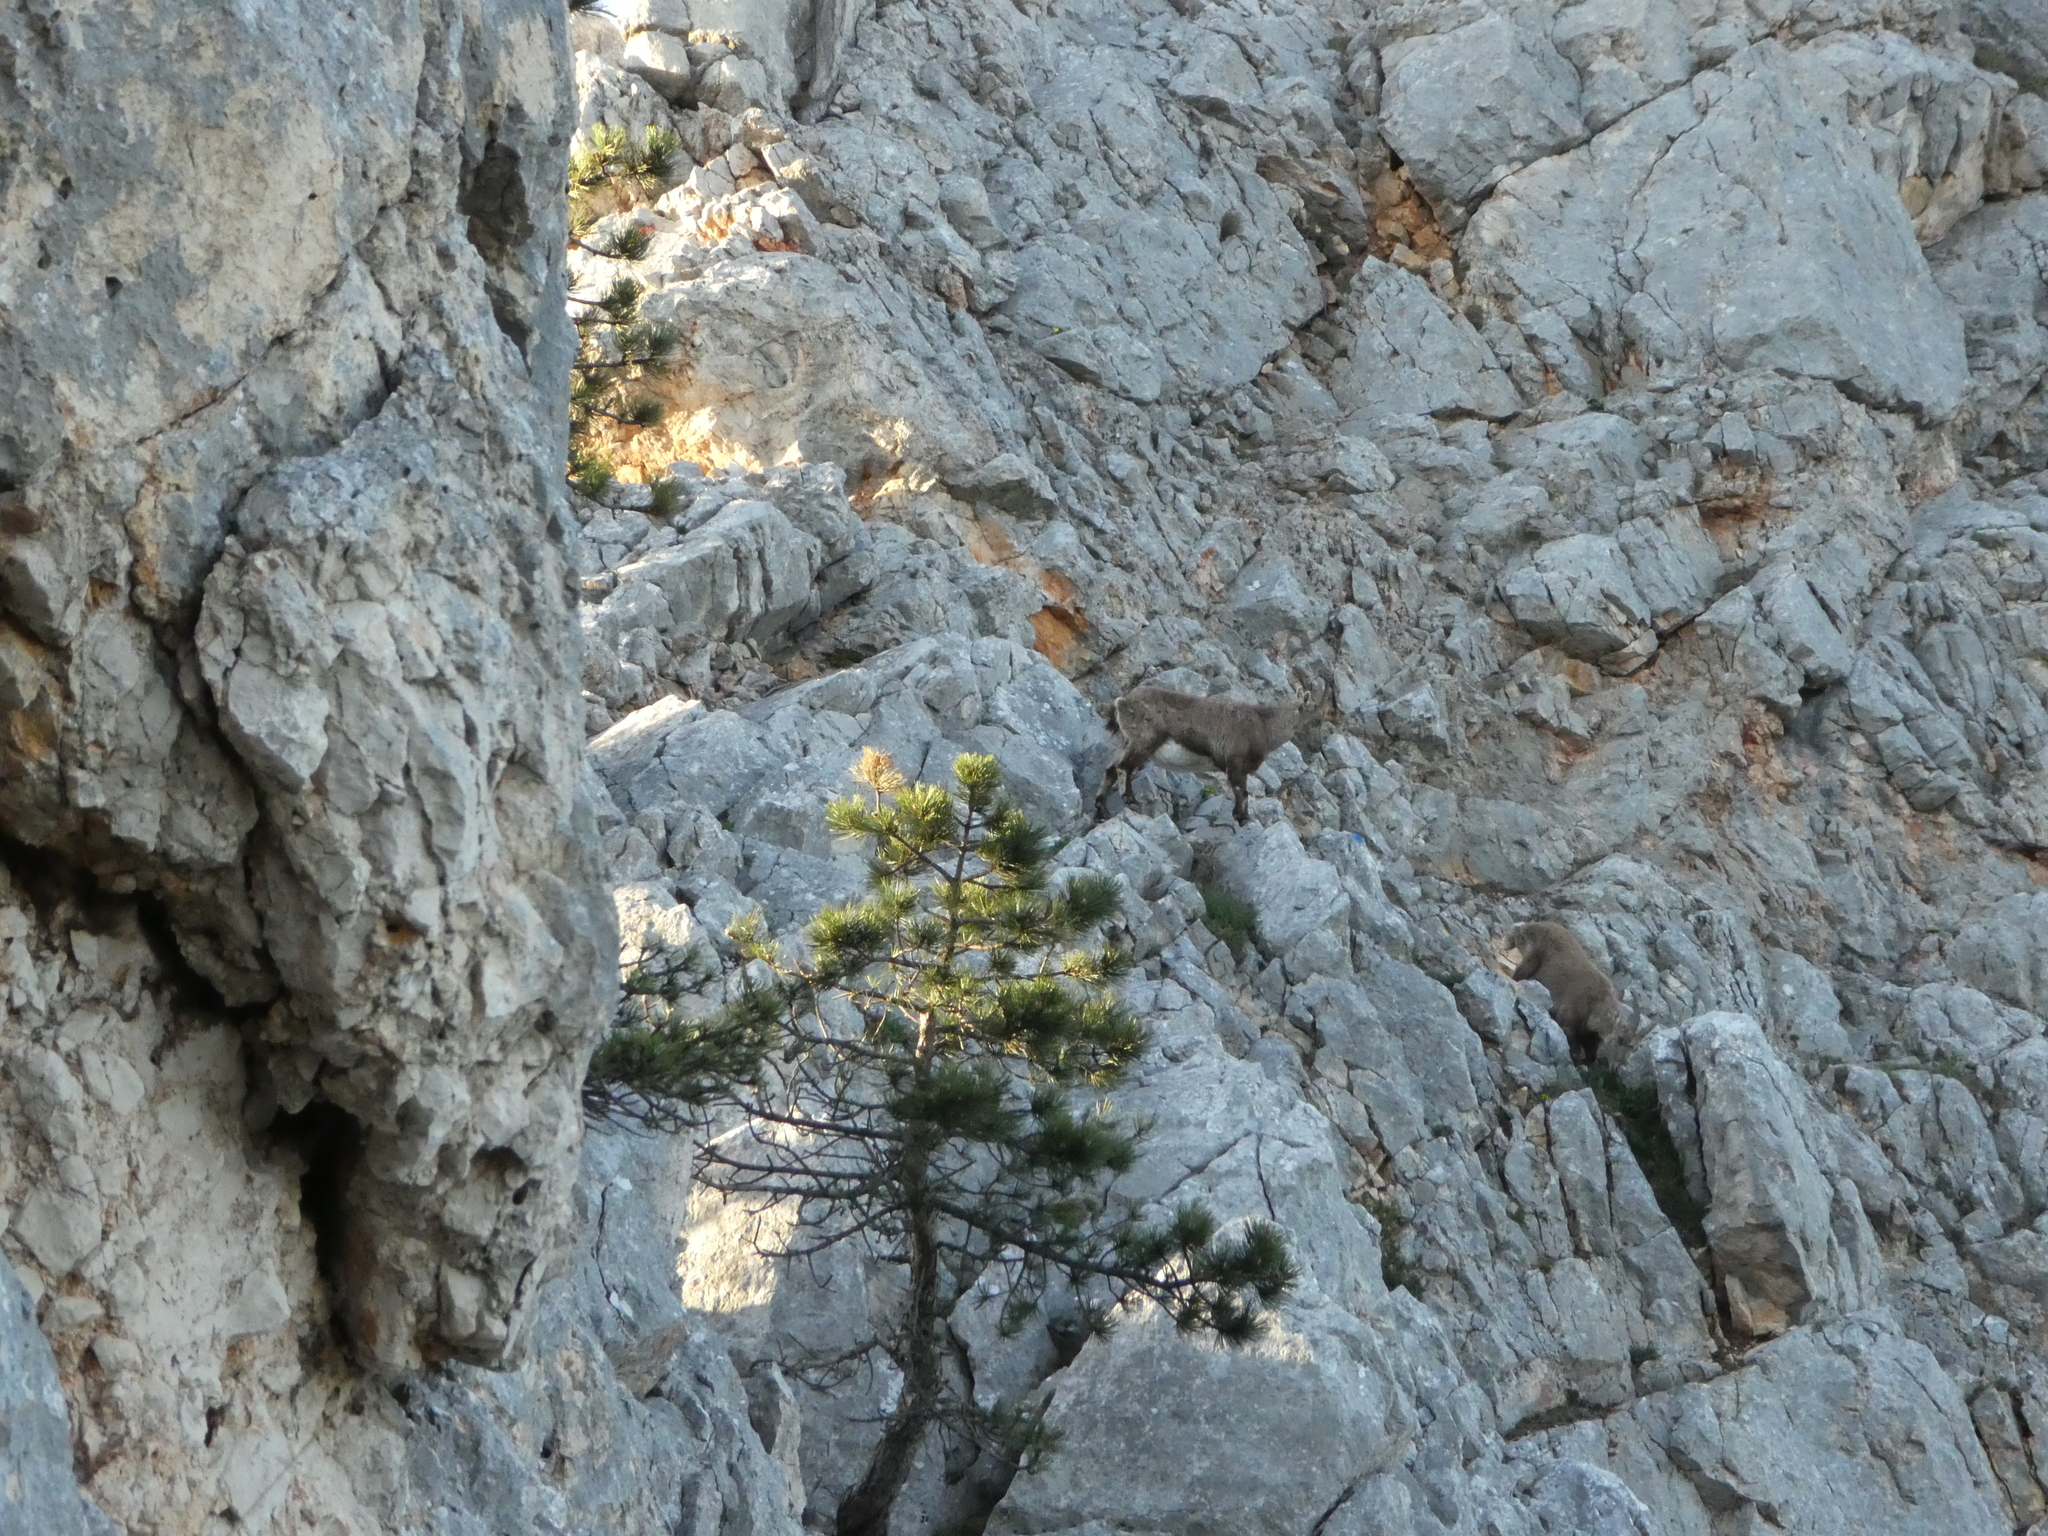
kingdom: Animalia
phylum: Chordata
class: Mammalia
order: Artiodactyla
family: Bovidae
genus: Capra
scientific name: Capra ibex
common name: Alpine ibex
